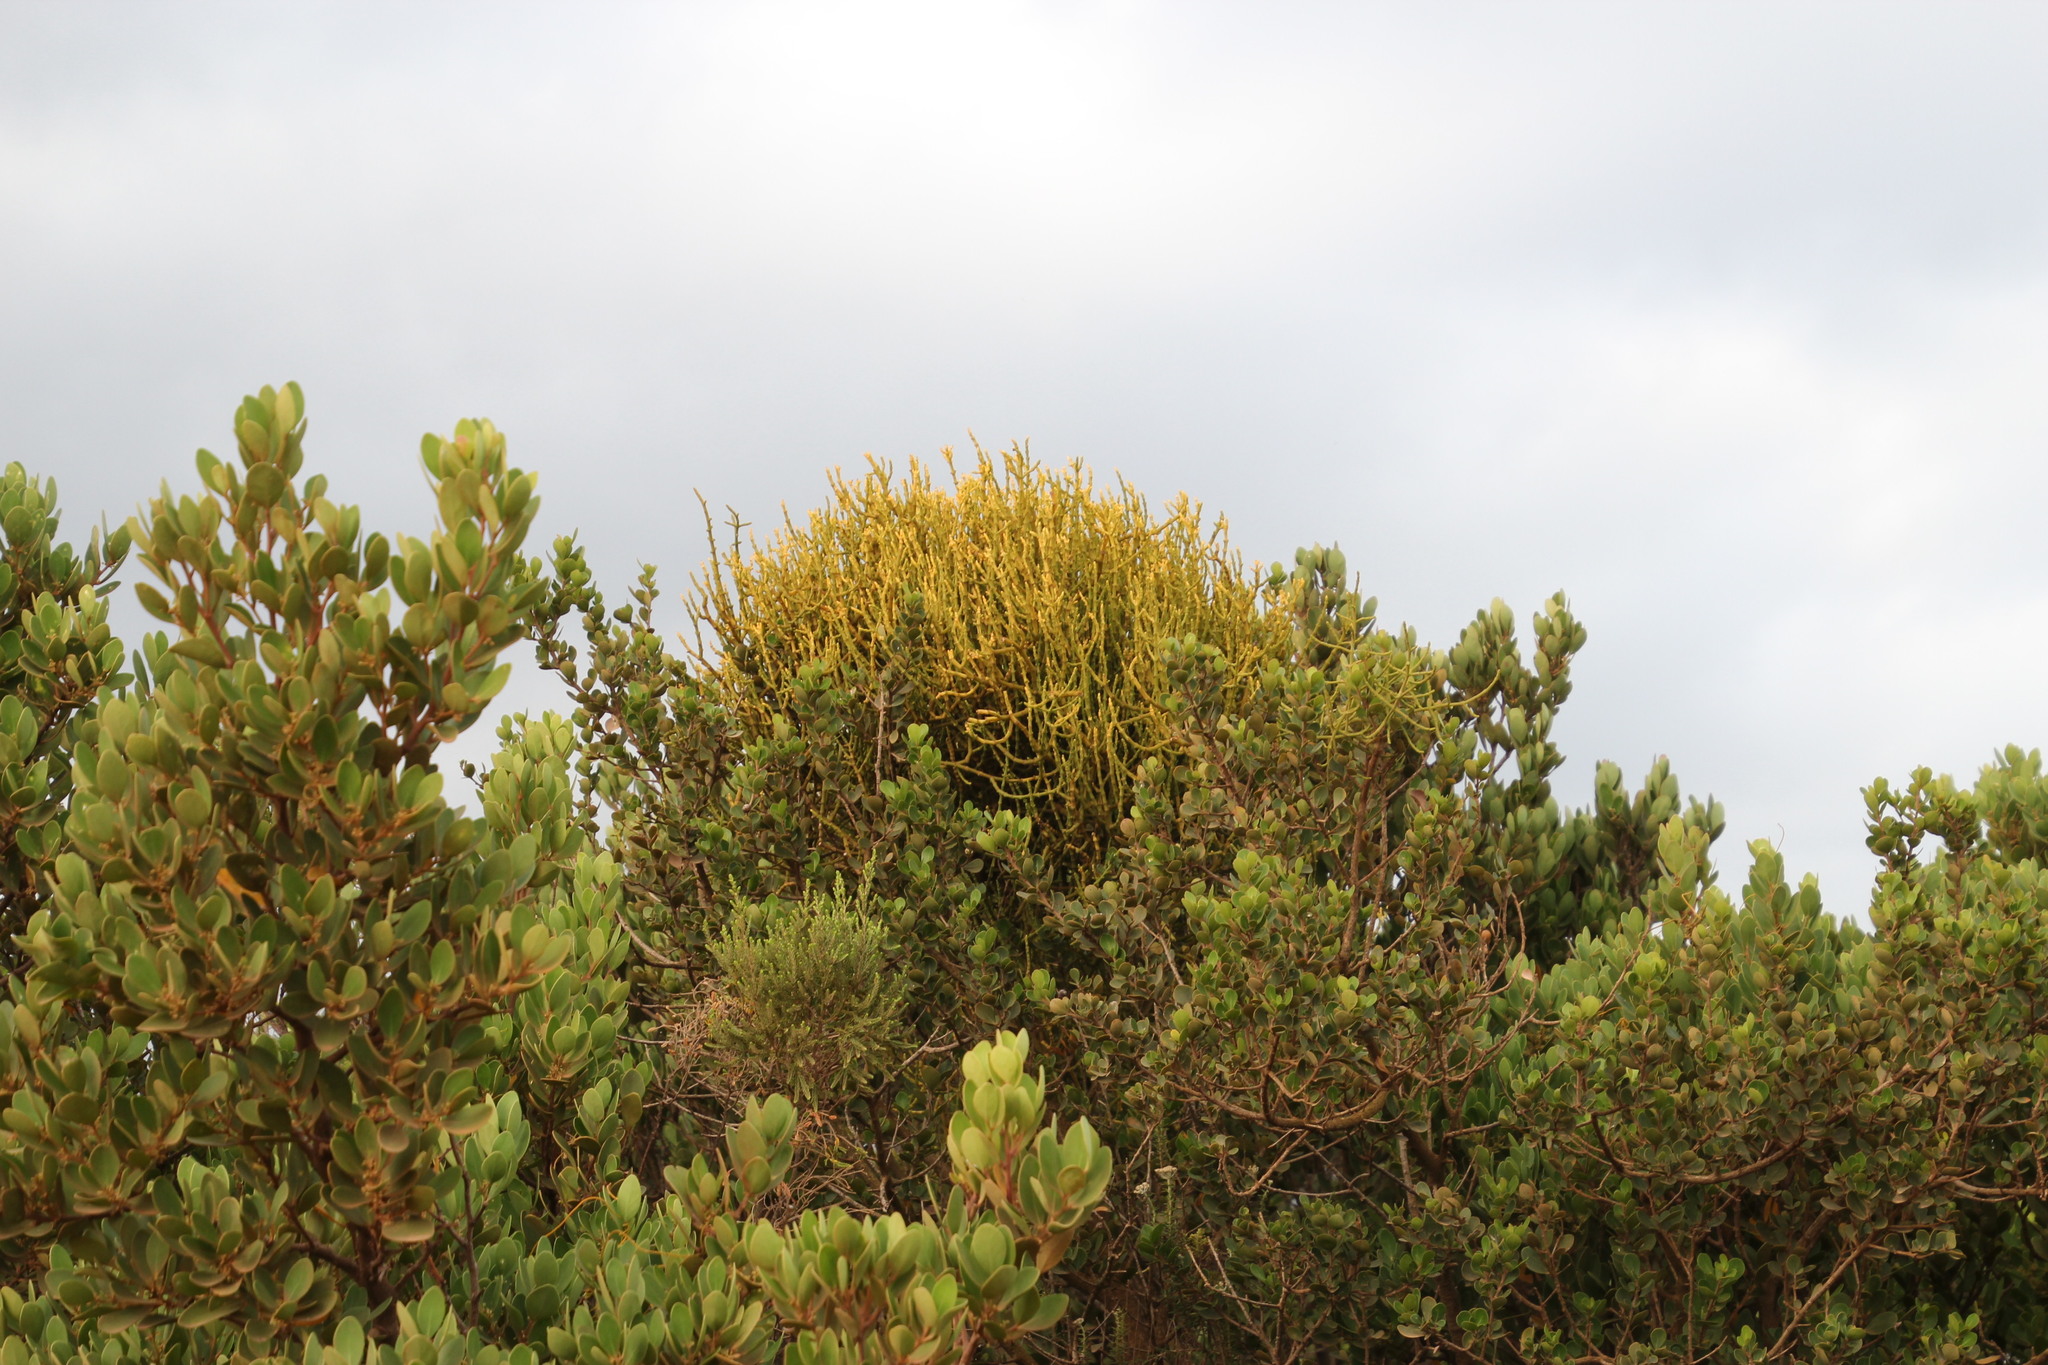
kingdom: Plantae
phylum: Tracheophyta
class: Magnoliopsida
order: Sapindales
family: Anacardiaceae
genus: Searsia
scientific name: Searsia lucida
